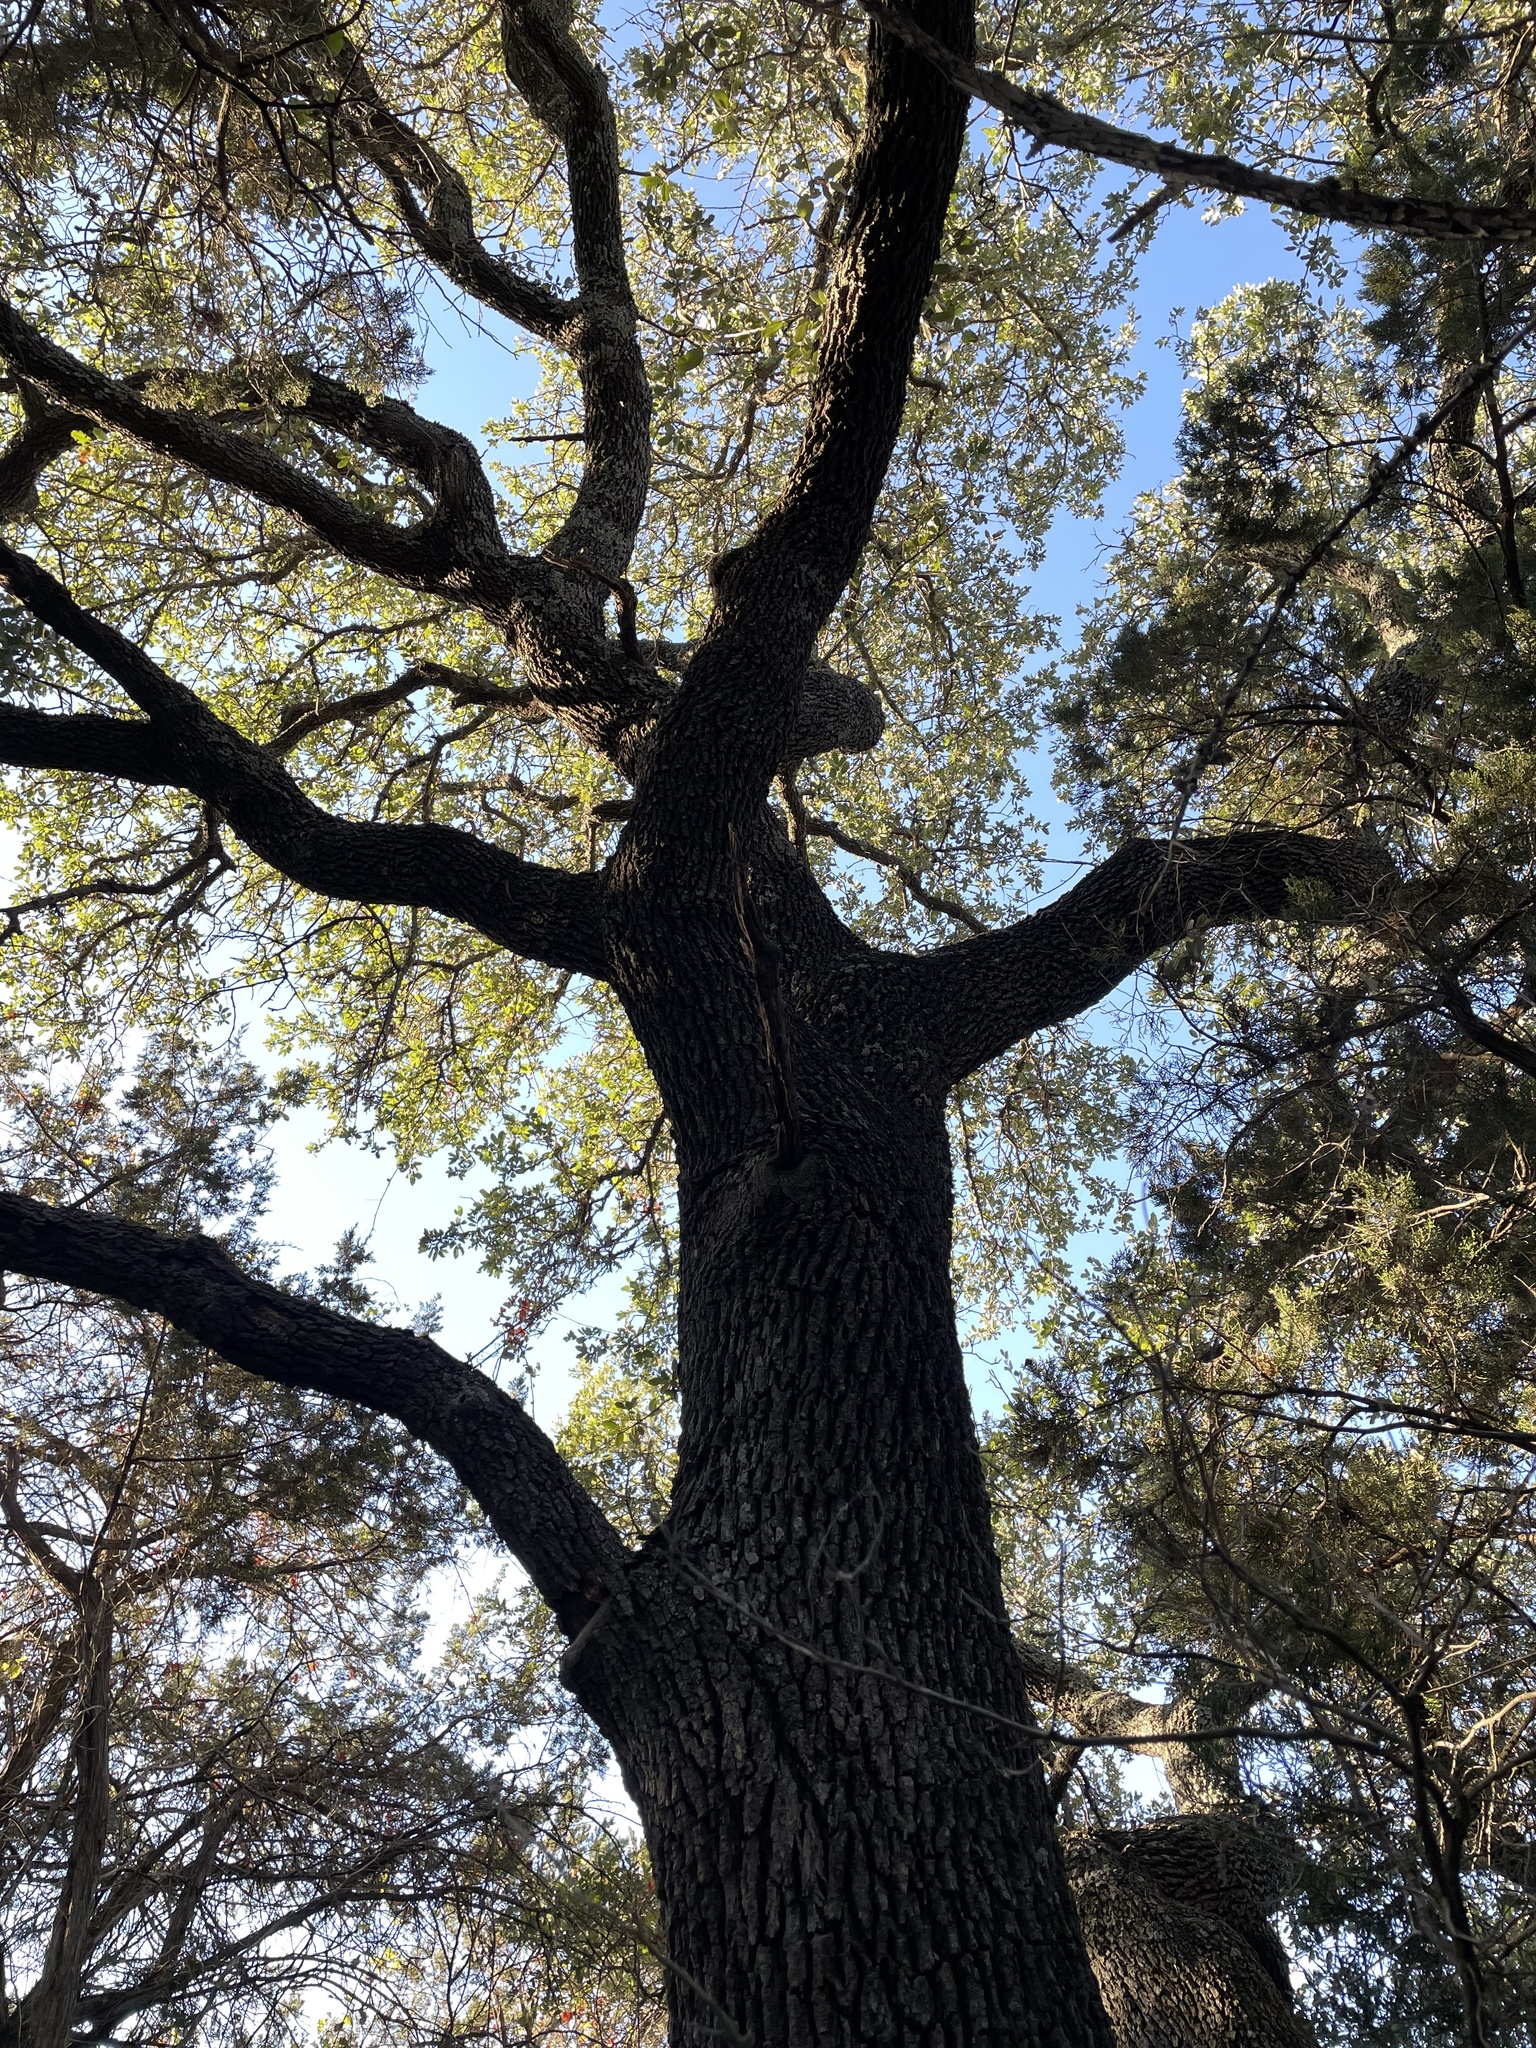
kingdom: Plantae
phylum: Tracheophyta
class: Magnoliopsida
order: Fagales
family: Fagaceae
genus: Quercus
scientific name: Quercus fusiformis
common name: Texas live oak
